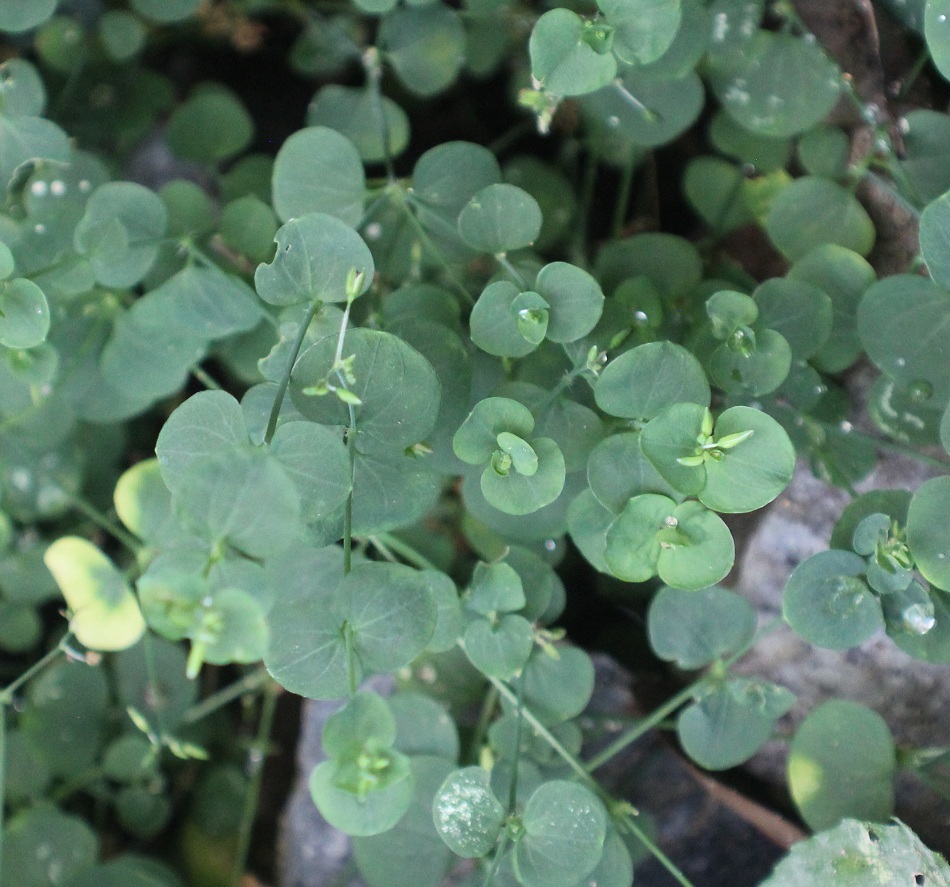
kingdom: Plantae
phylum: Tracheophyta
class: Magnoliopsida
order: Caryophyllales
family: Caryophyllaceae
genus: Drymaria
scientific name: Drymaria cordata
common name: Whitesnow
